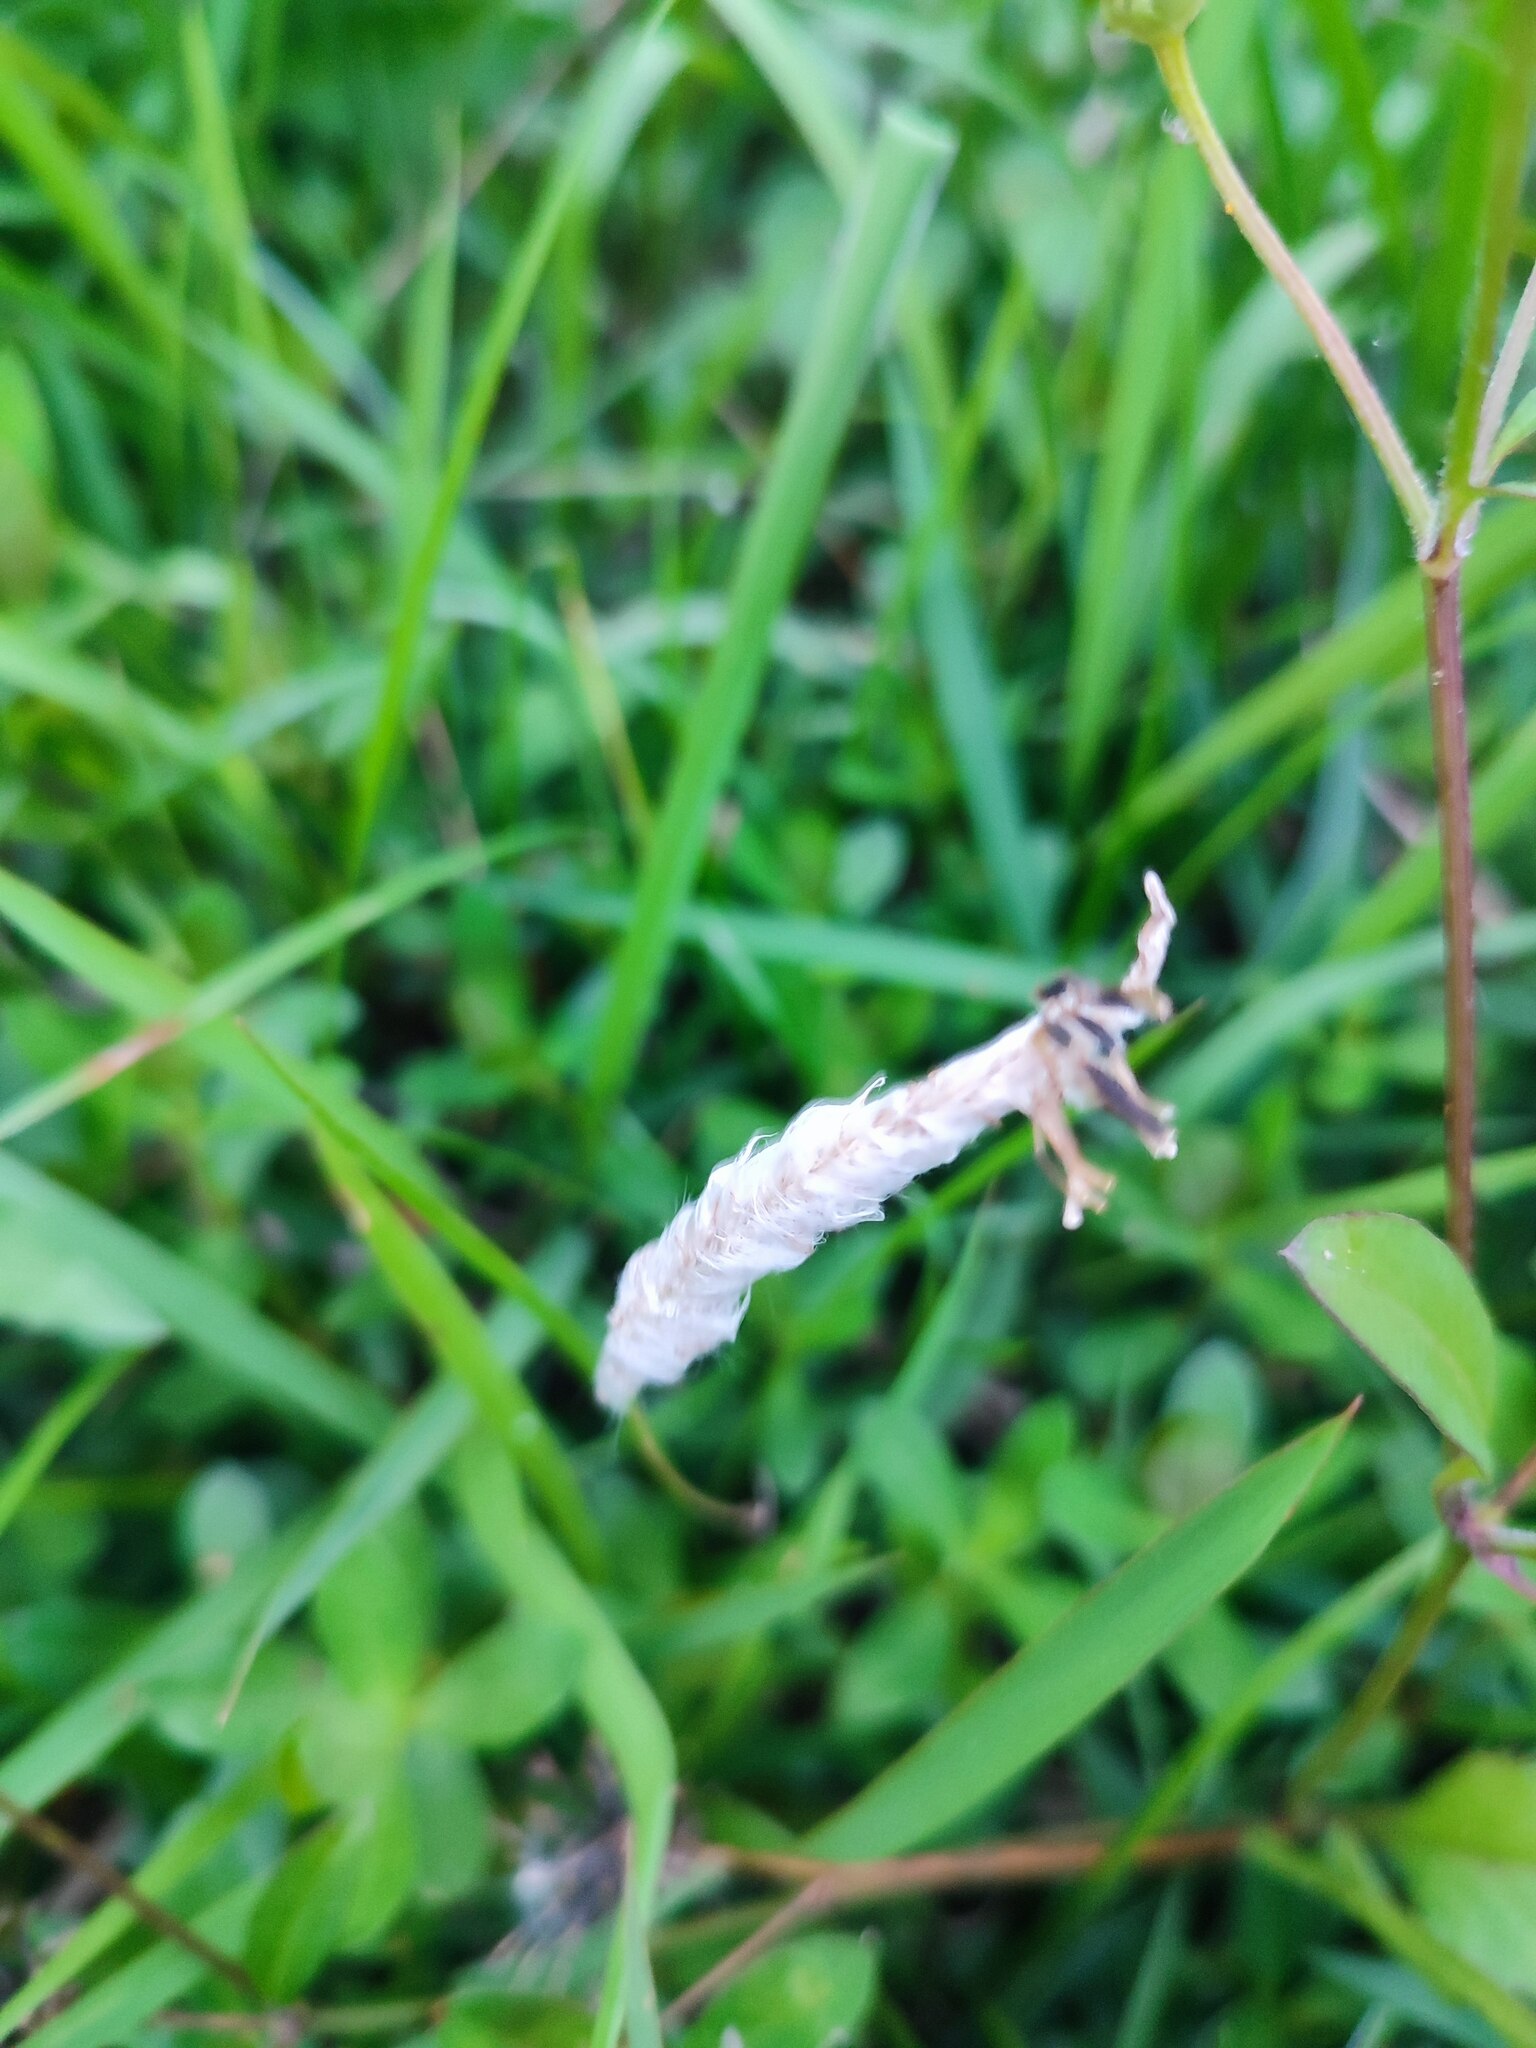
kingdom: Plantae
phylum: Tracheophyta
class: Liliopsida
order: Poales
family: Poaceae
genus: Imperata
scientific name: Imperata cylindrica
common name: Cogongrass
